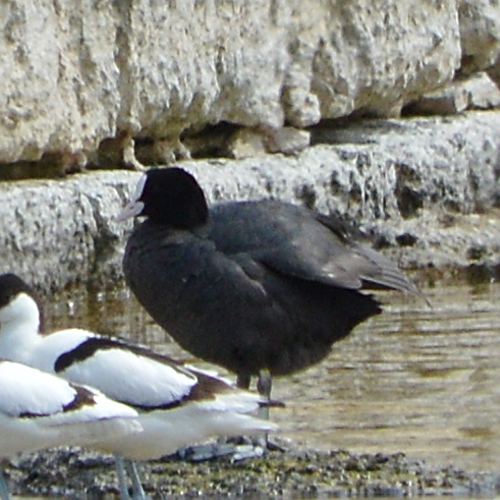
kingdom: Animalia
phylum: Chordata
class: Aves
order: Gruiformes
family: Rallidae
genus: Fulica
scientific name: Fulica atra
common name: Eurasian coot
